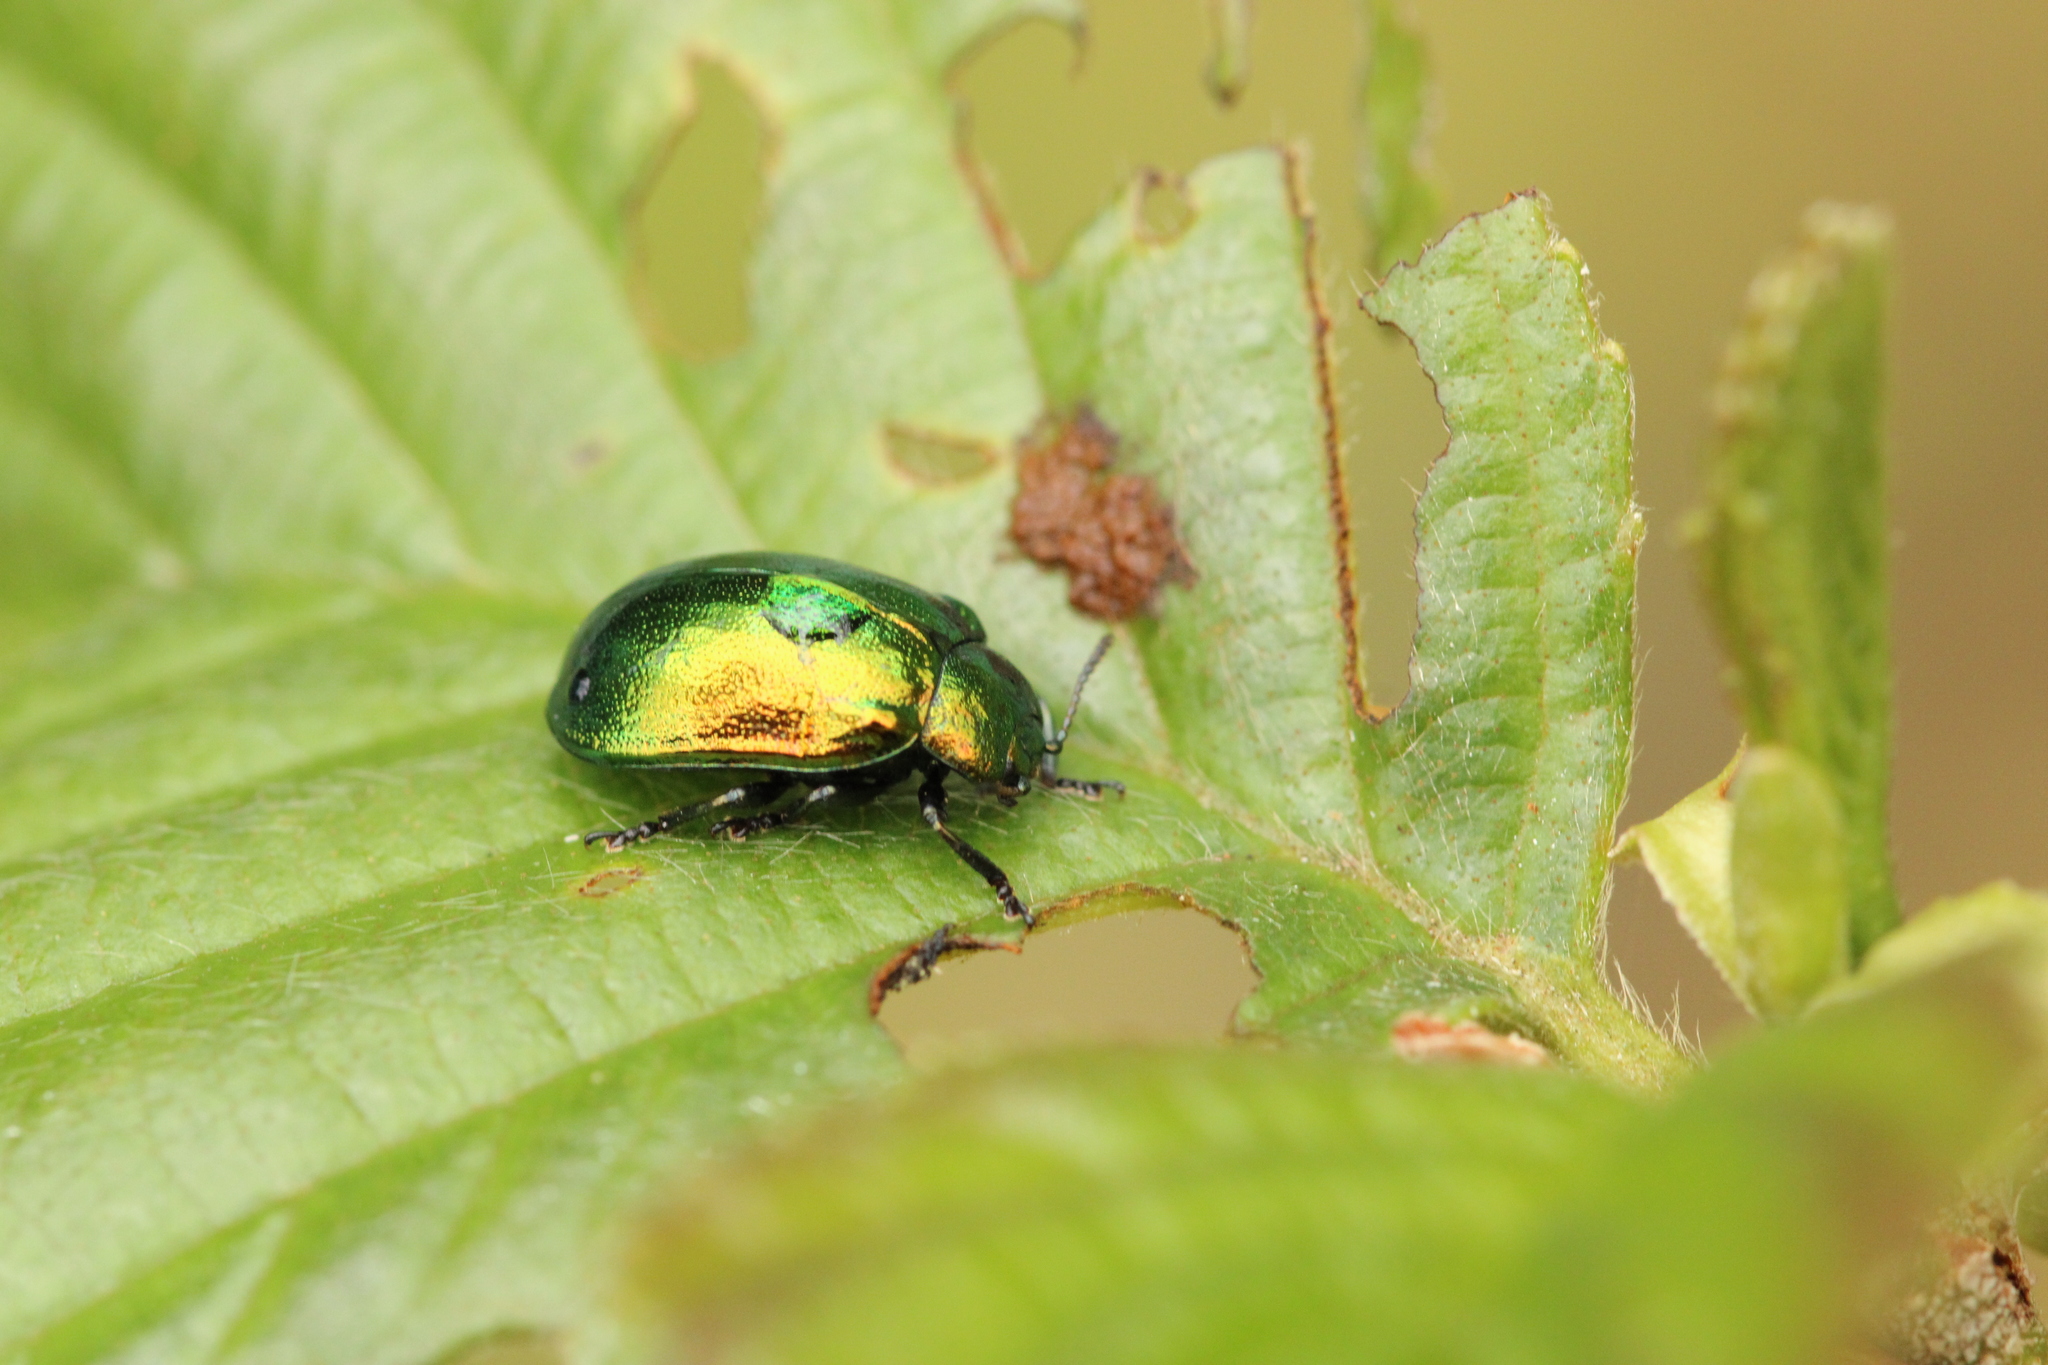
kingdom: Animalia
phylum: Arthropoda
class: Insecta
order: Coleoptera
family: Chrysomelidae
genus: Plagiosterna
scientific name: Plagiosterna aenea
